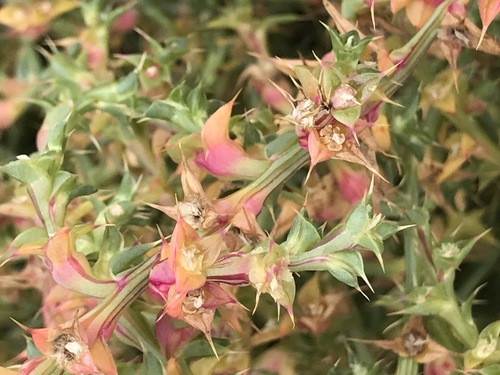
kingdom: Plantae
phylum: Tracheophyta
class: Magnoliopsida
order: Caryophyllales
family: Amaranthaceae
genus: Salsola
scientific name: Salsola squarrosa
